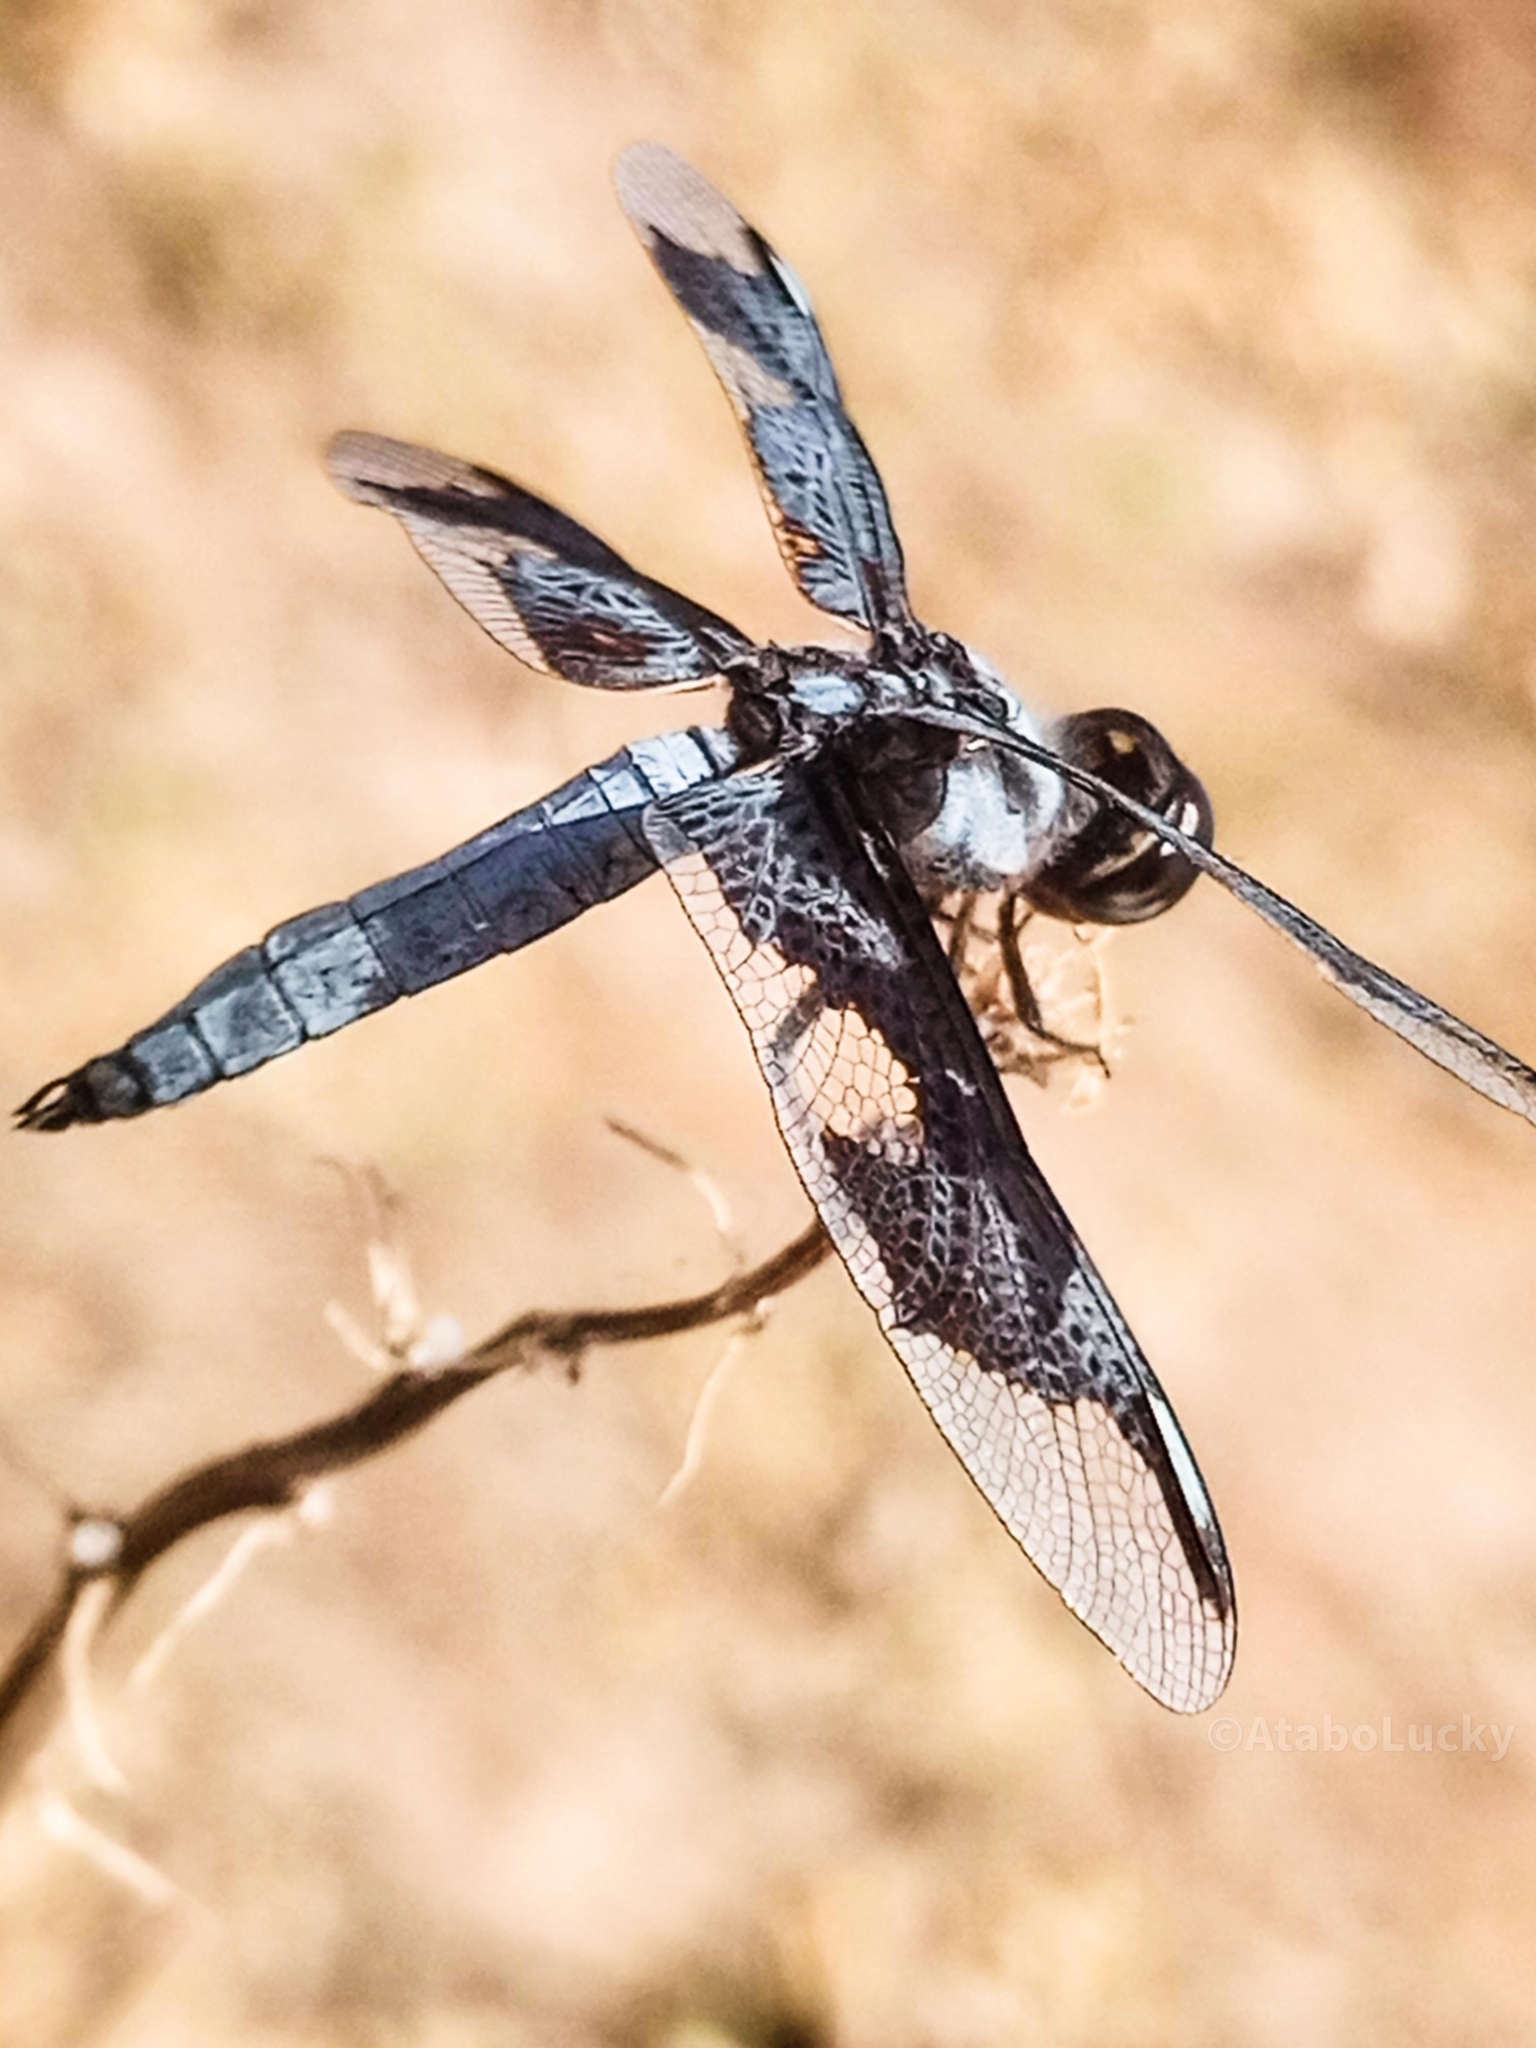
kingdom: Animalia
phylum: Arthropoda
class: Insecta
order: Odonata
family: Libellulidae
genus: Palpopleura
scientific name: Palpopleura portia
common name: Portia widow
